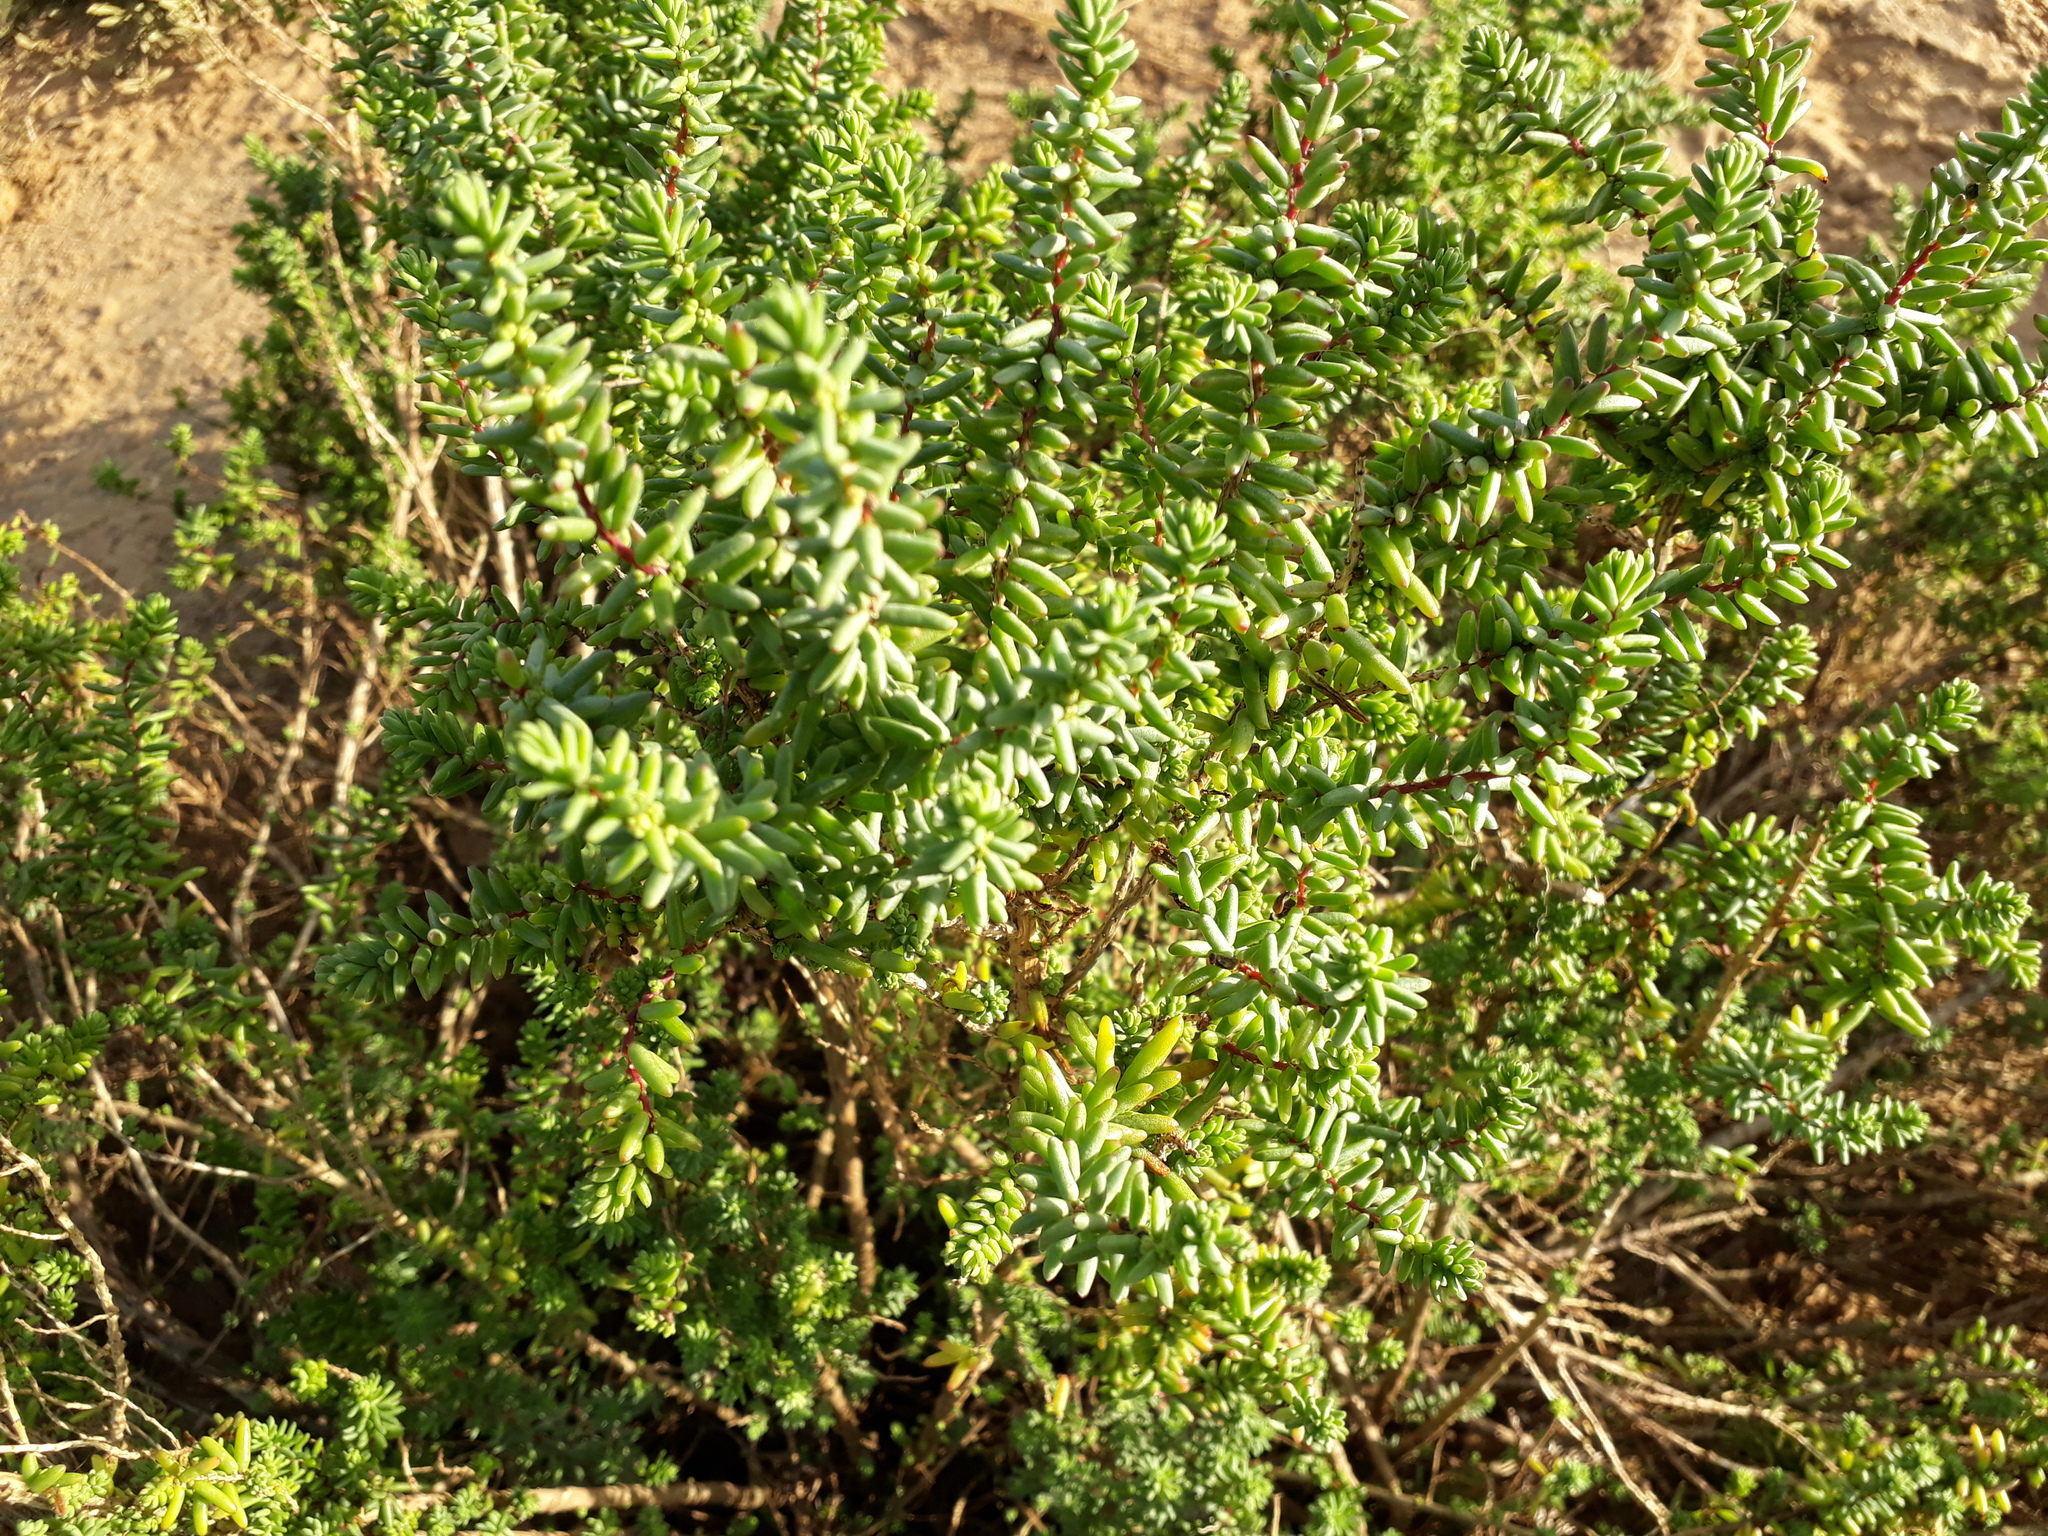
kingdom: Plantae
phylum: Tracheophyta
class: Magnoliopsida
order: Caryophyllales
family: Amaranthaceae
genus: Suaeda
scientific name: Suaeda vera
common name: Shrubby sea-blite
